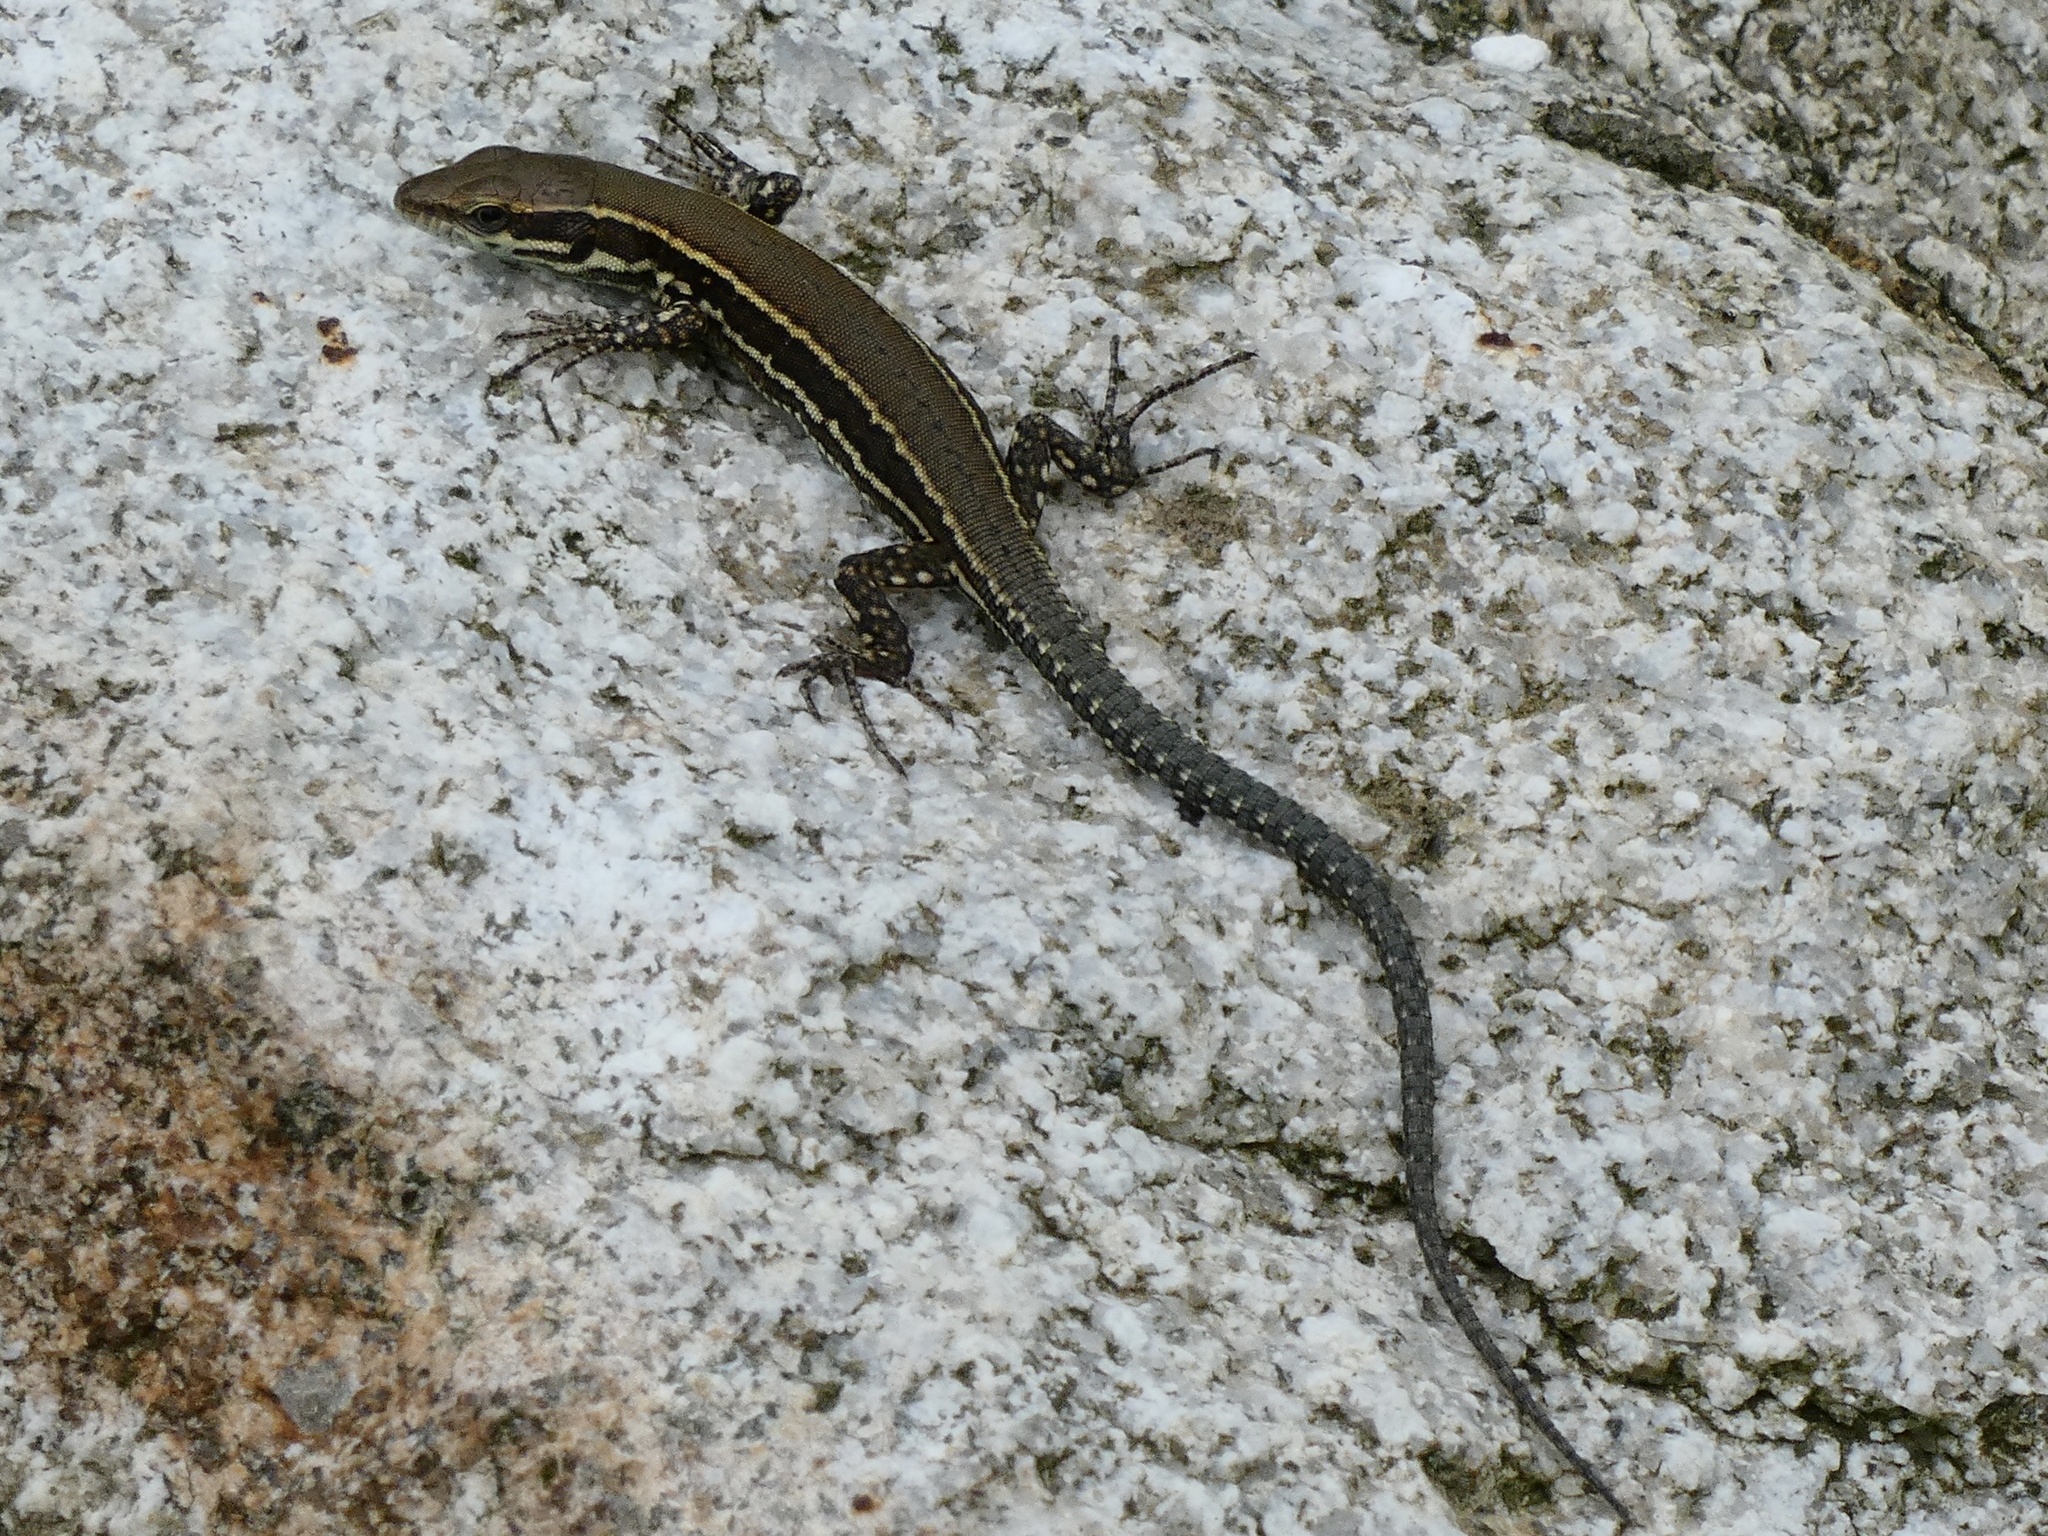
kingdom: Animalia
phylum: Chordata
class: Squamata
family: Lacertidae
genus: Podarcis
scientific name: Podarcis muralis
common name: Common wall lizard
